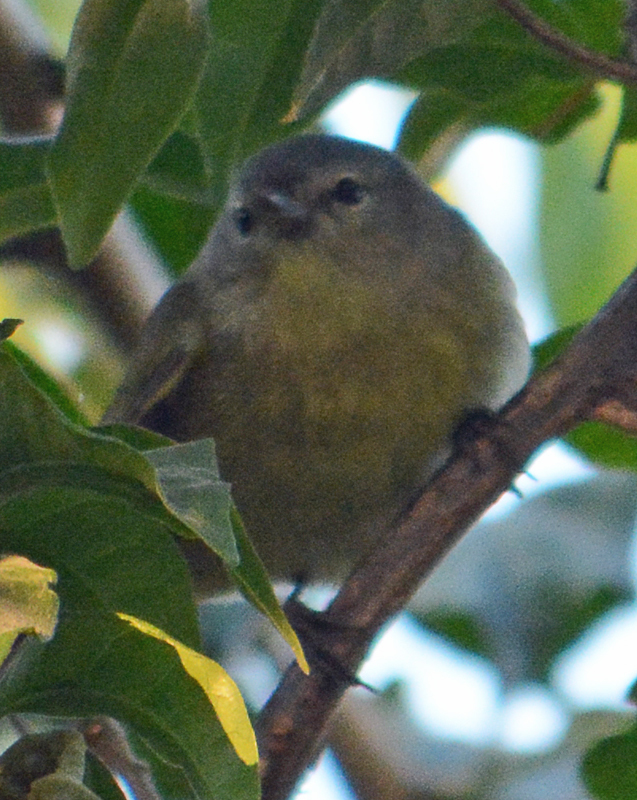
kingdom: Animalia
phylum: Chordata
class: Aves
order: Passeriformes
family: Parulidae
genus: Leiothlypis
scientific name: Leiothlypis celata
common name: Orange-crowned warbler
